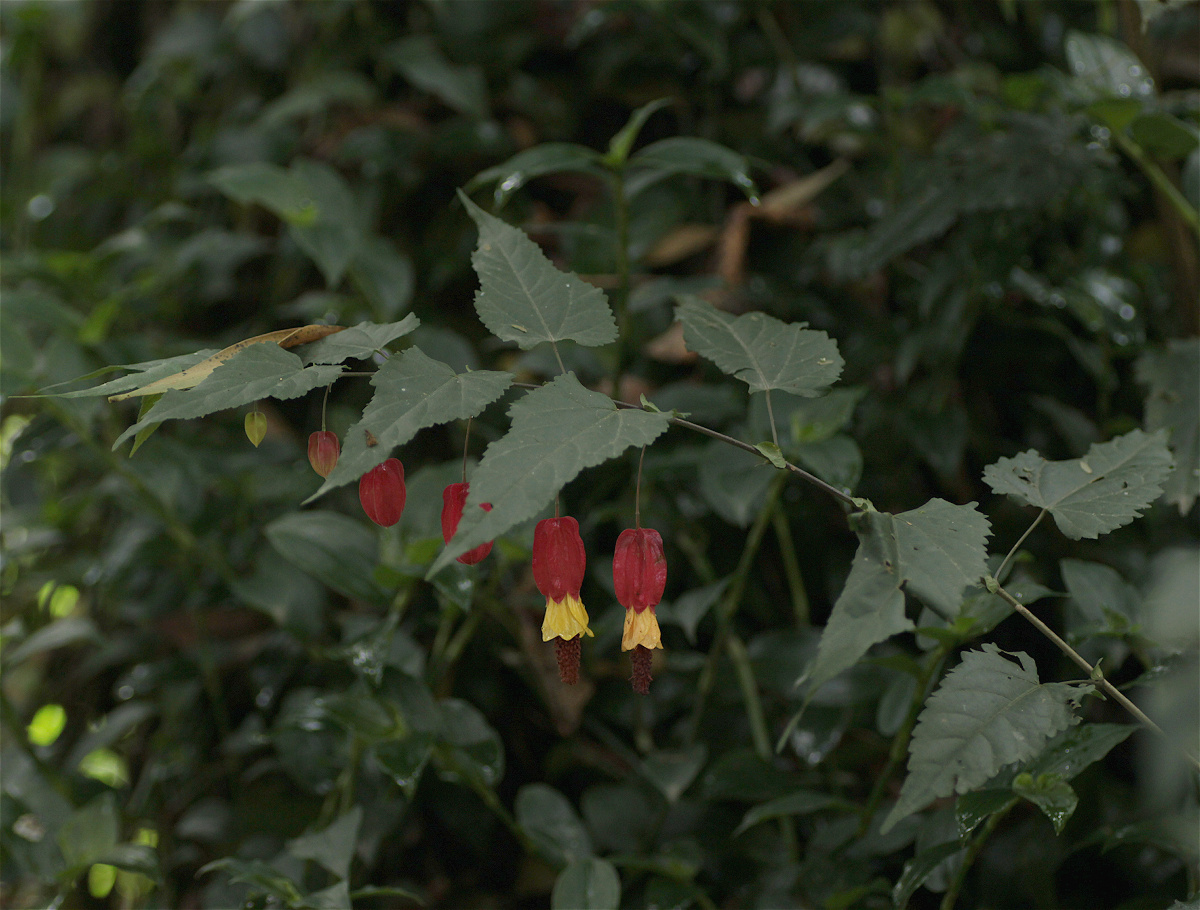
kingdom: Plantae
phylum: Tracheophyta
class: Magnoliopsida
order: Malvales
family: Malvaceae
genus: Callianthe
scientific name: Callianthe megapotamica
